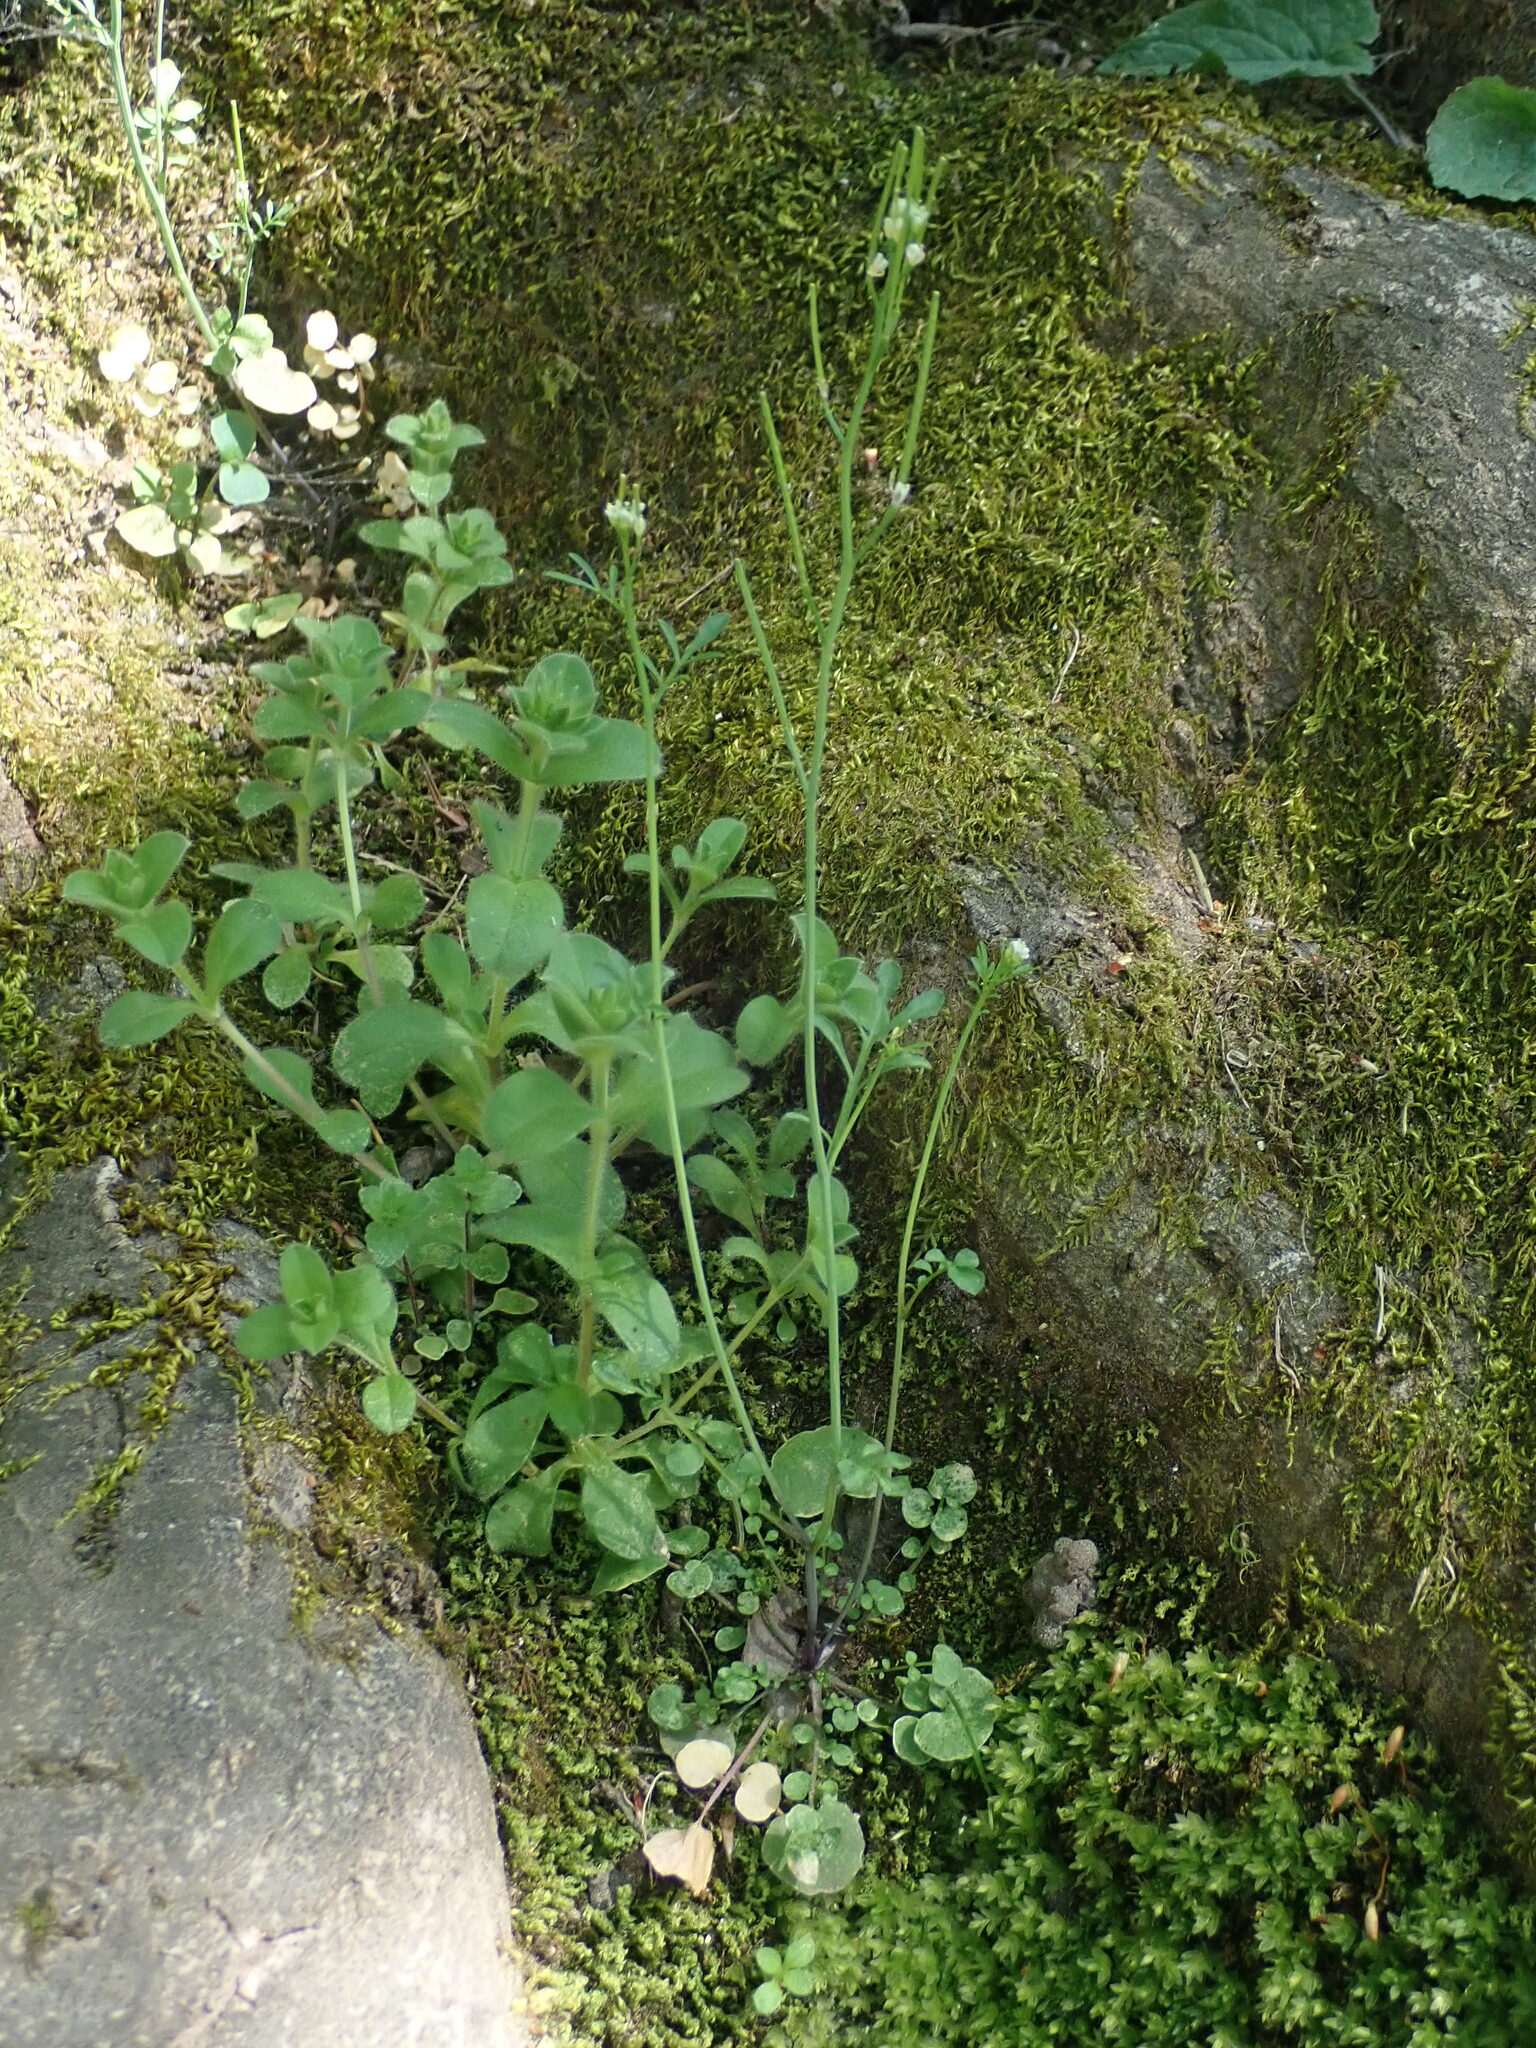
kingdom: Plantae
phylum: Tracheophyta
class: Magnoliopsida
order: Brassicales
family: Brassicaceae
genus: Cardamine
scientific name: Cardamine hirsuta
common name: Hairy bittercress
